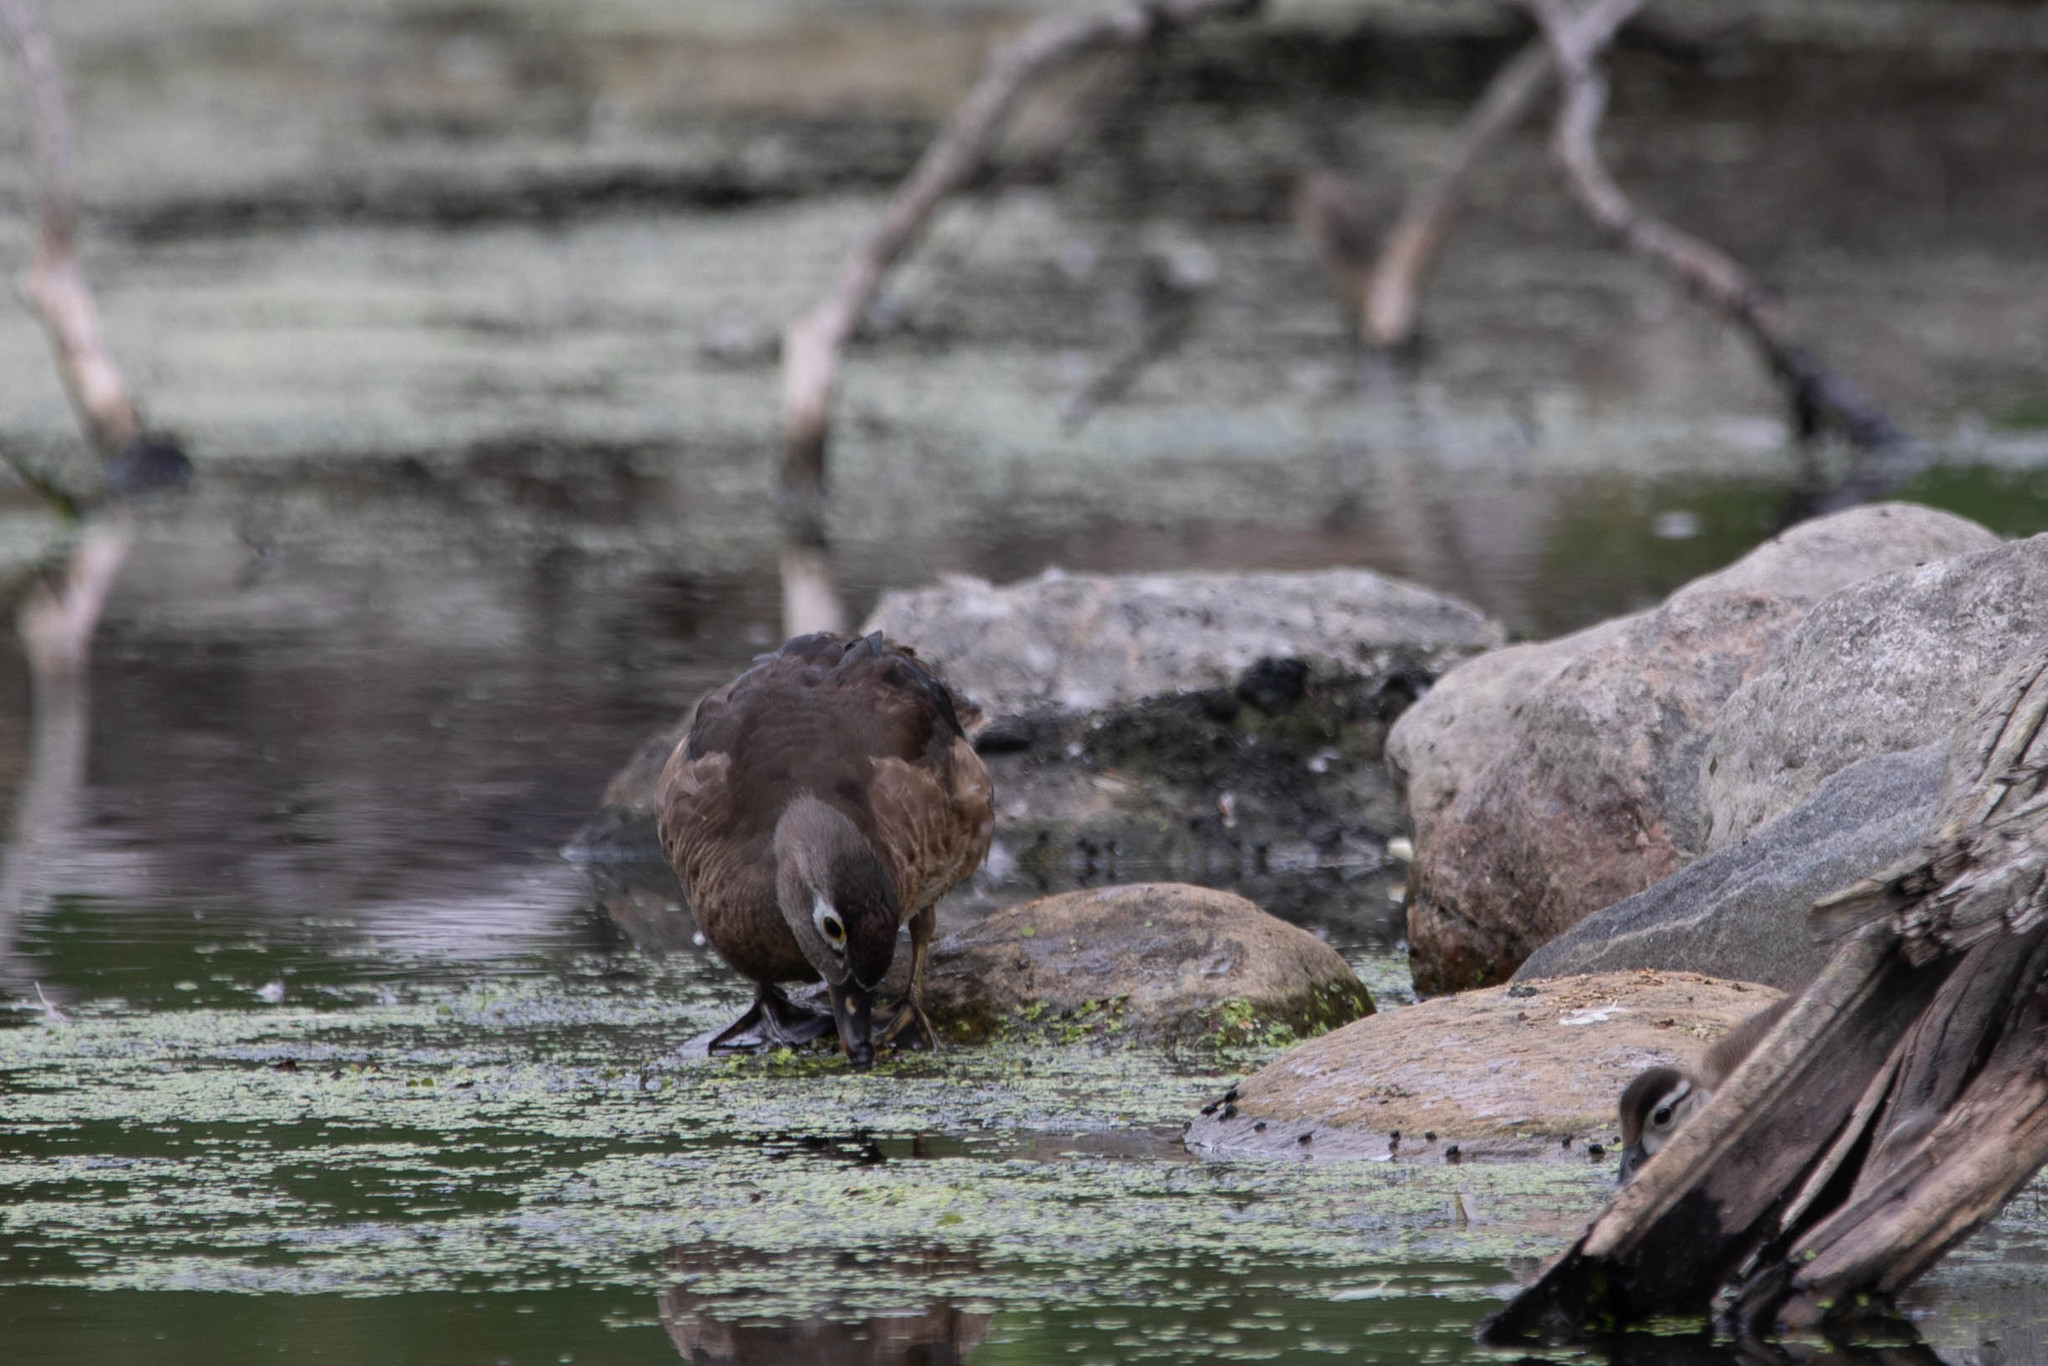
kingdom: Animalia
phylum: Chordata
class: Aves
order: Anseriformes
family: Anatidae
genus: Aix
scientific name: Aix sponsa
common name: Wood duck
